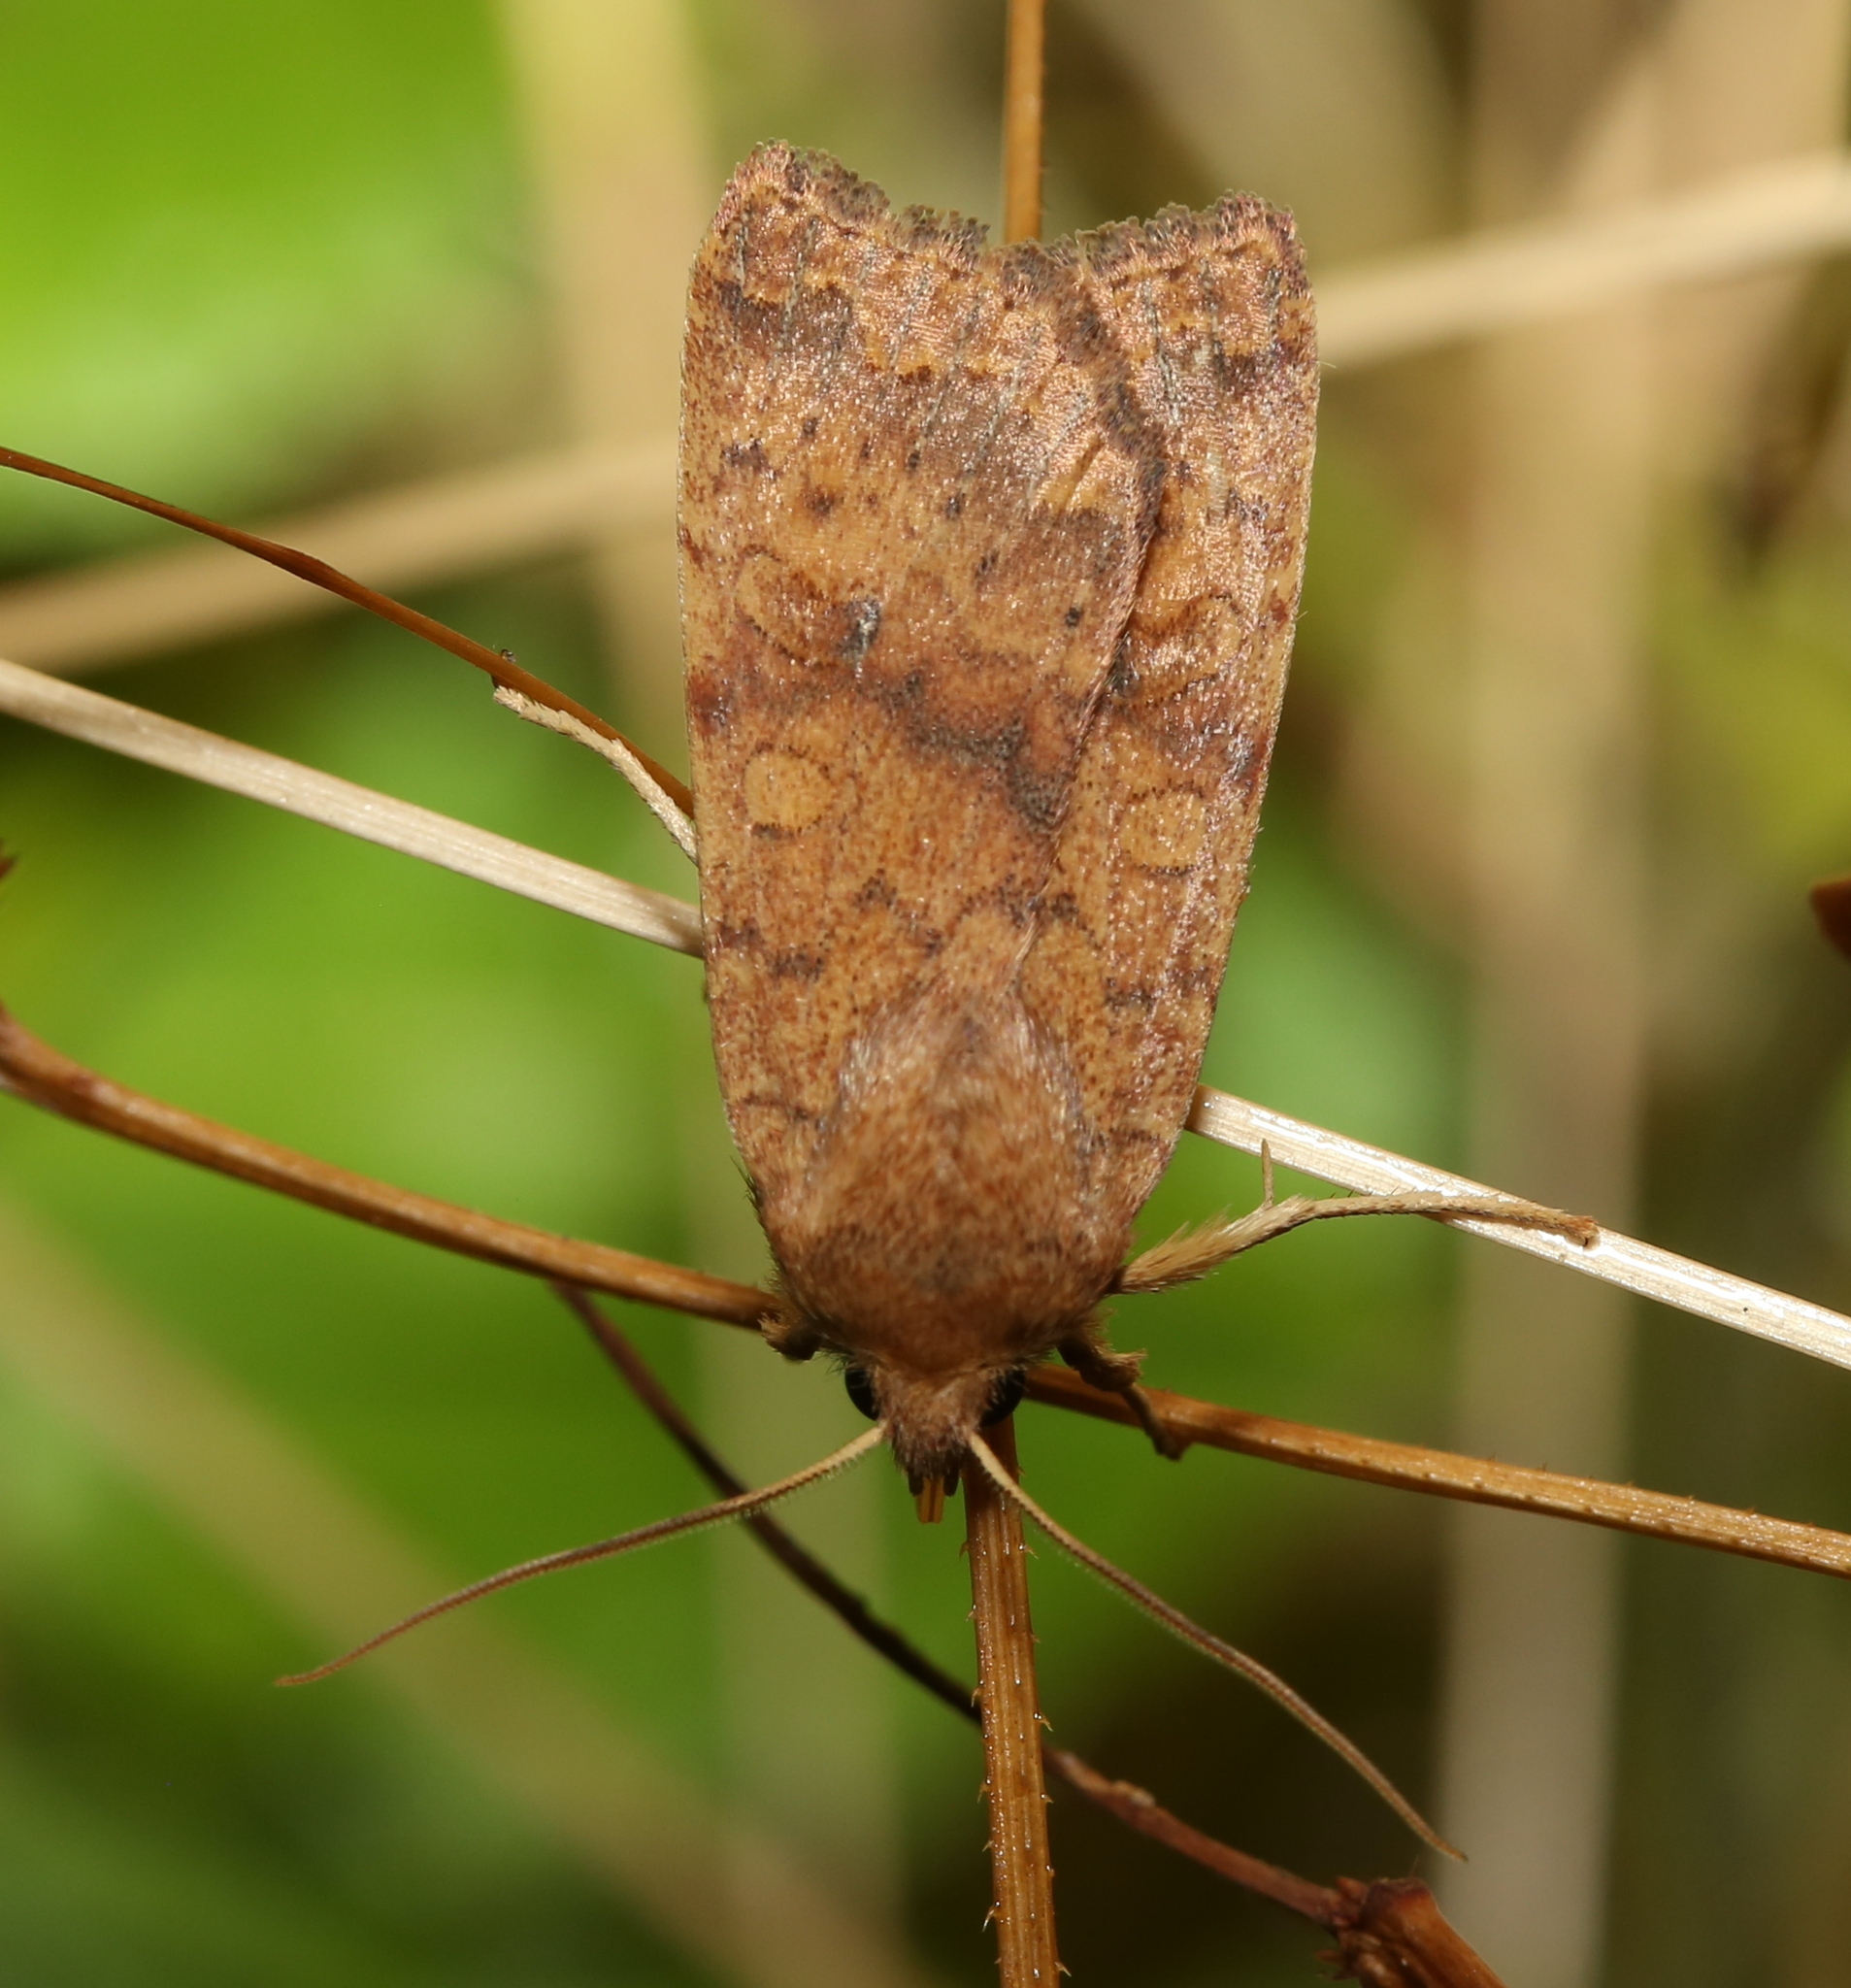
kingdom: Animalia
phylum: Arthropoda
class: Insecta
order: Lepidoptera
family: Noctuidae
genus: Agrochola
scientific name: Agrochola bicolorago
